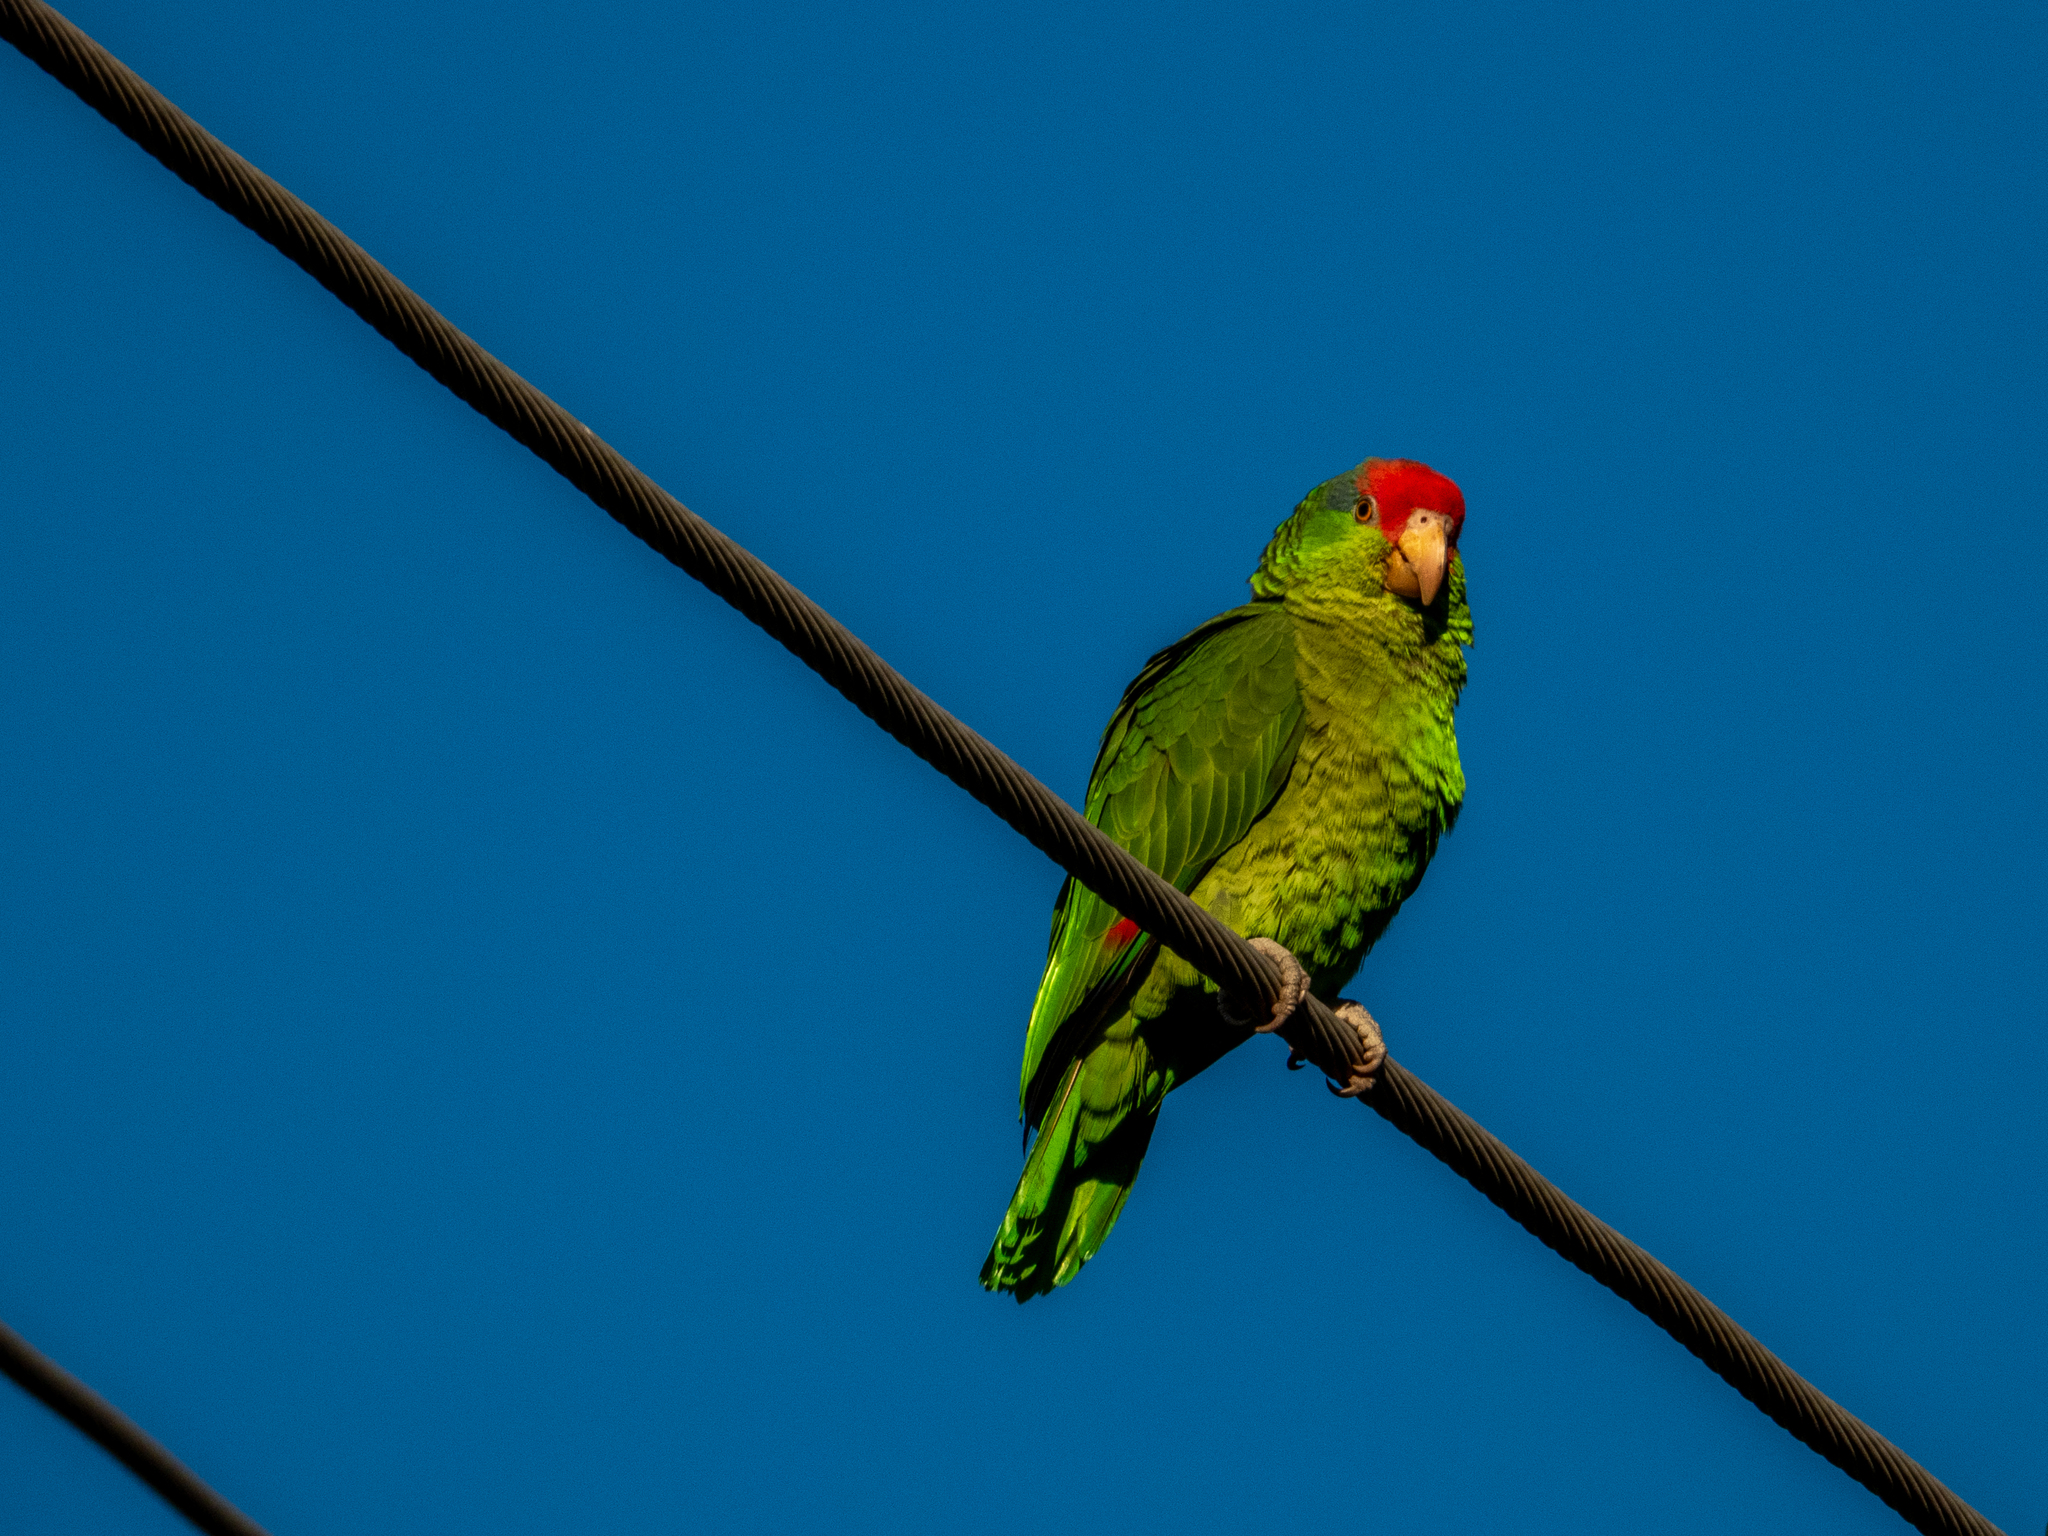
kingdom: Animalia
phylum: Chordata
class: Aves
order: Psittaciformes
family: Psittacidae
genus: Amazona
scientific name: Amazona viridigenalis
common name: Red-crowned amazon
